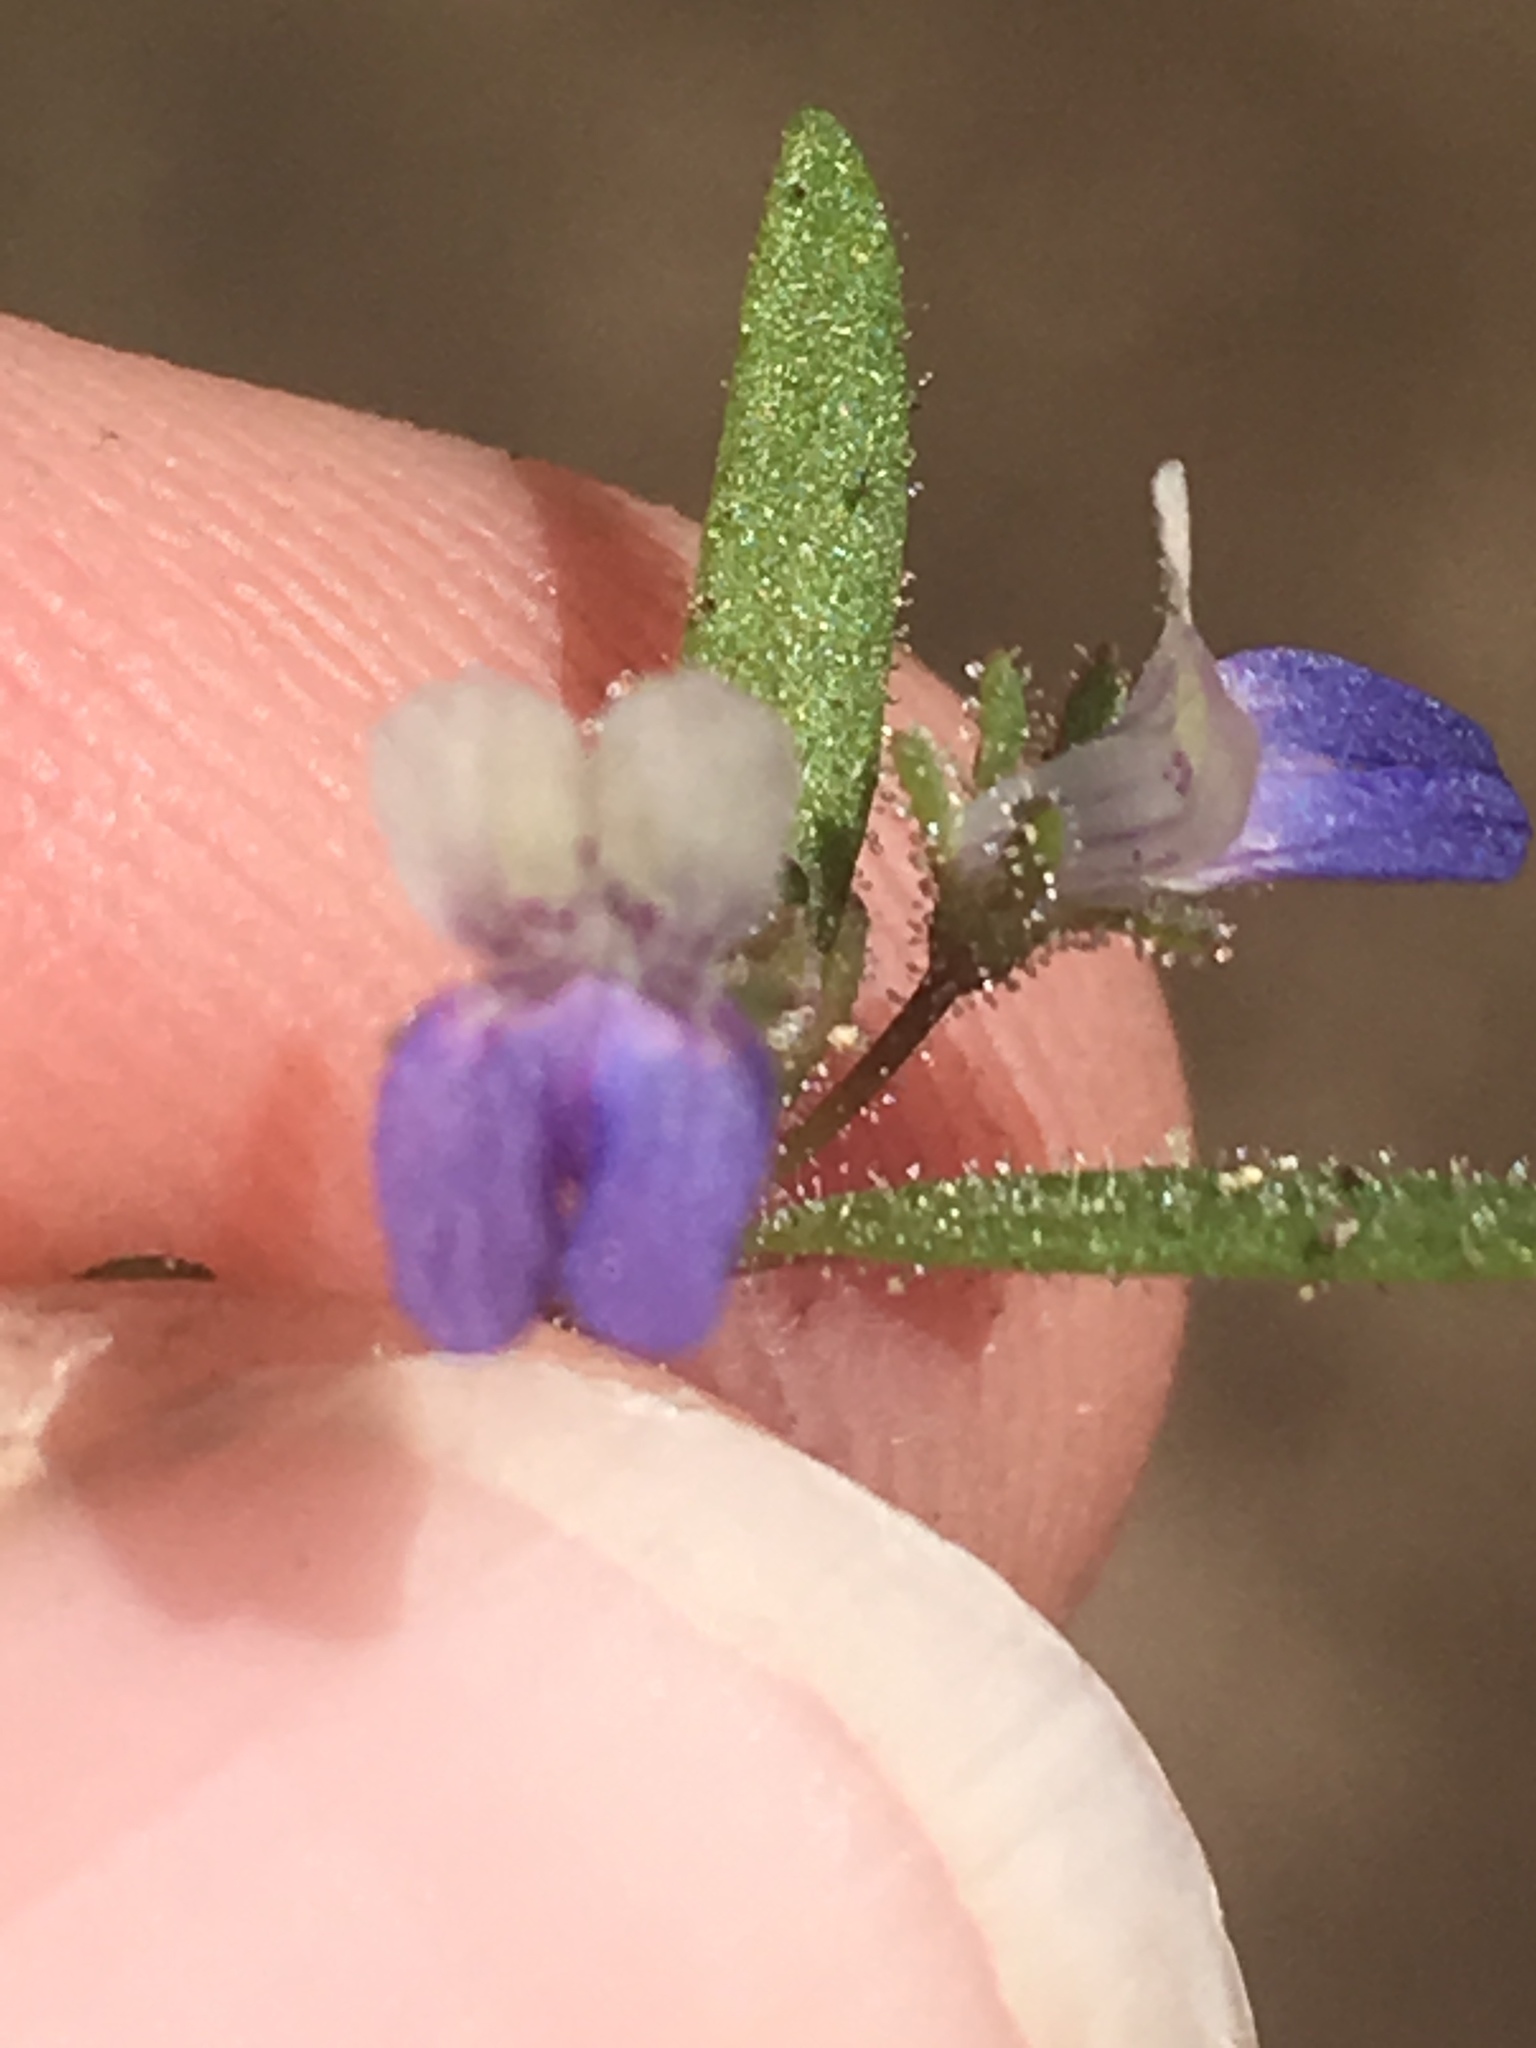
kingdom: Plantae
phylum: Tracheophyta
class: Magnoliopsida
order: Lamiales
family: Plantaginaceae
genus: Collinsia
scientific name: Collinsia torreyi
